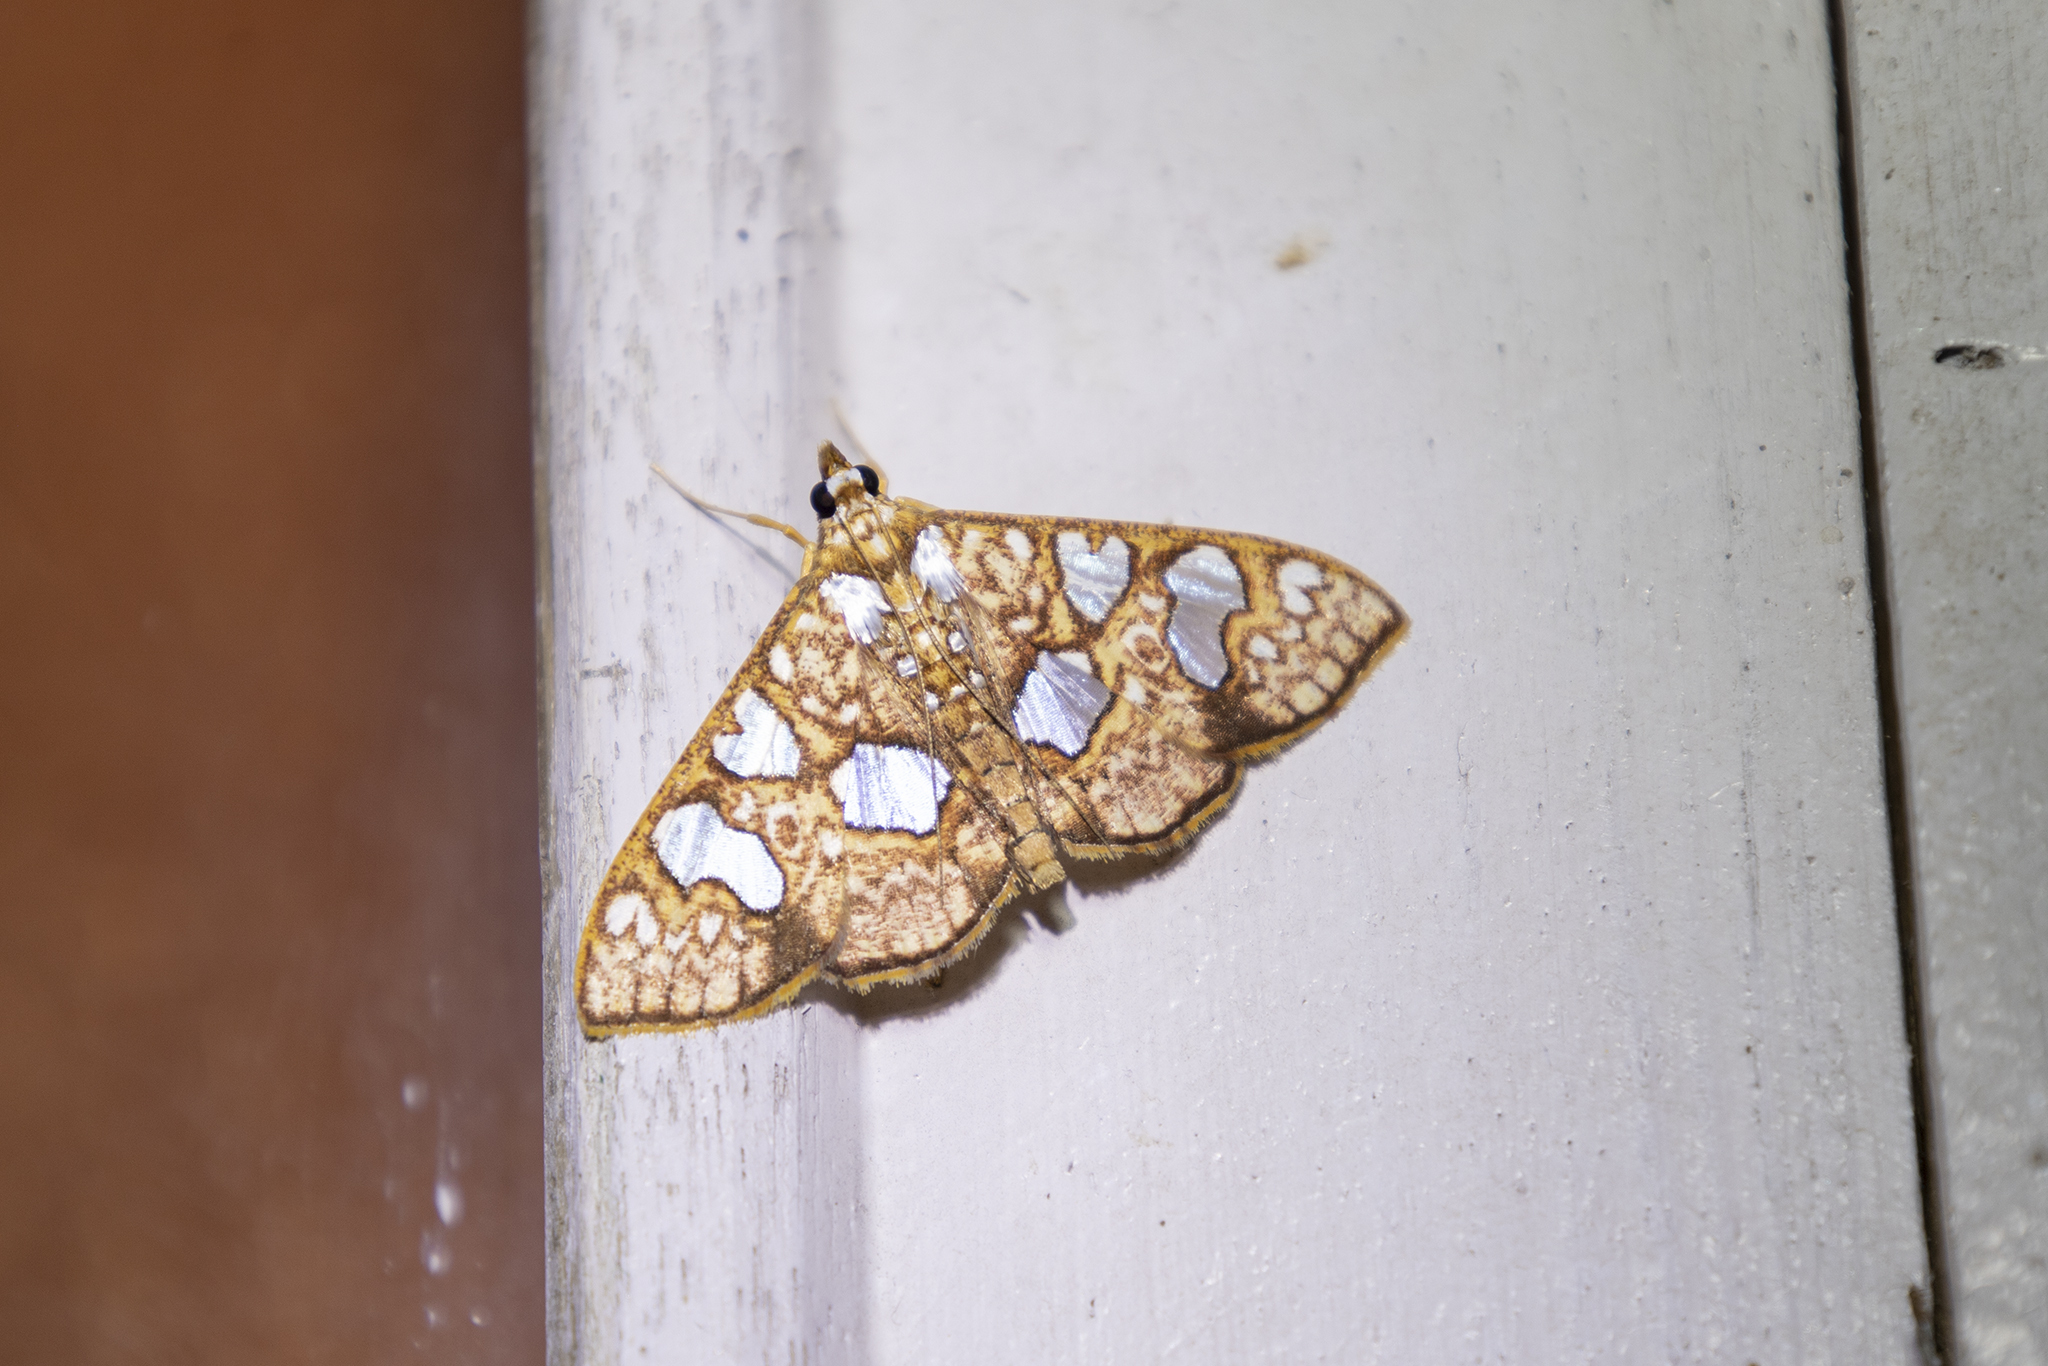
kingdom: Animalia
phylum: Arthropoda
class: Insecta
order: Lepidoptera
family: Crambidae
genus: Glyphodes
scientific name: Glyphodes canthusalis
